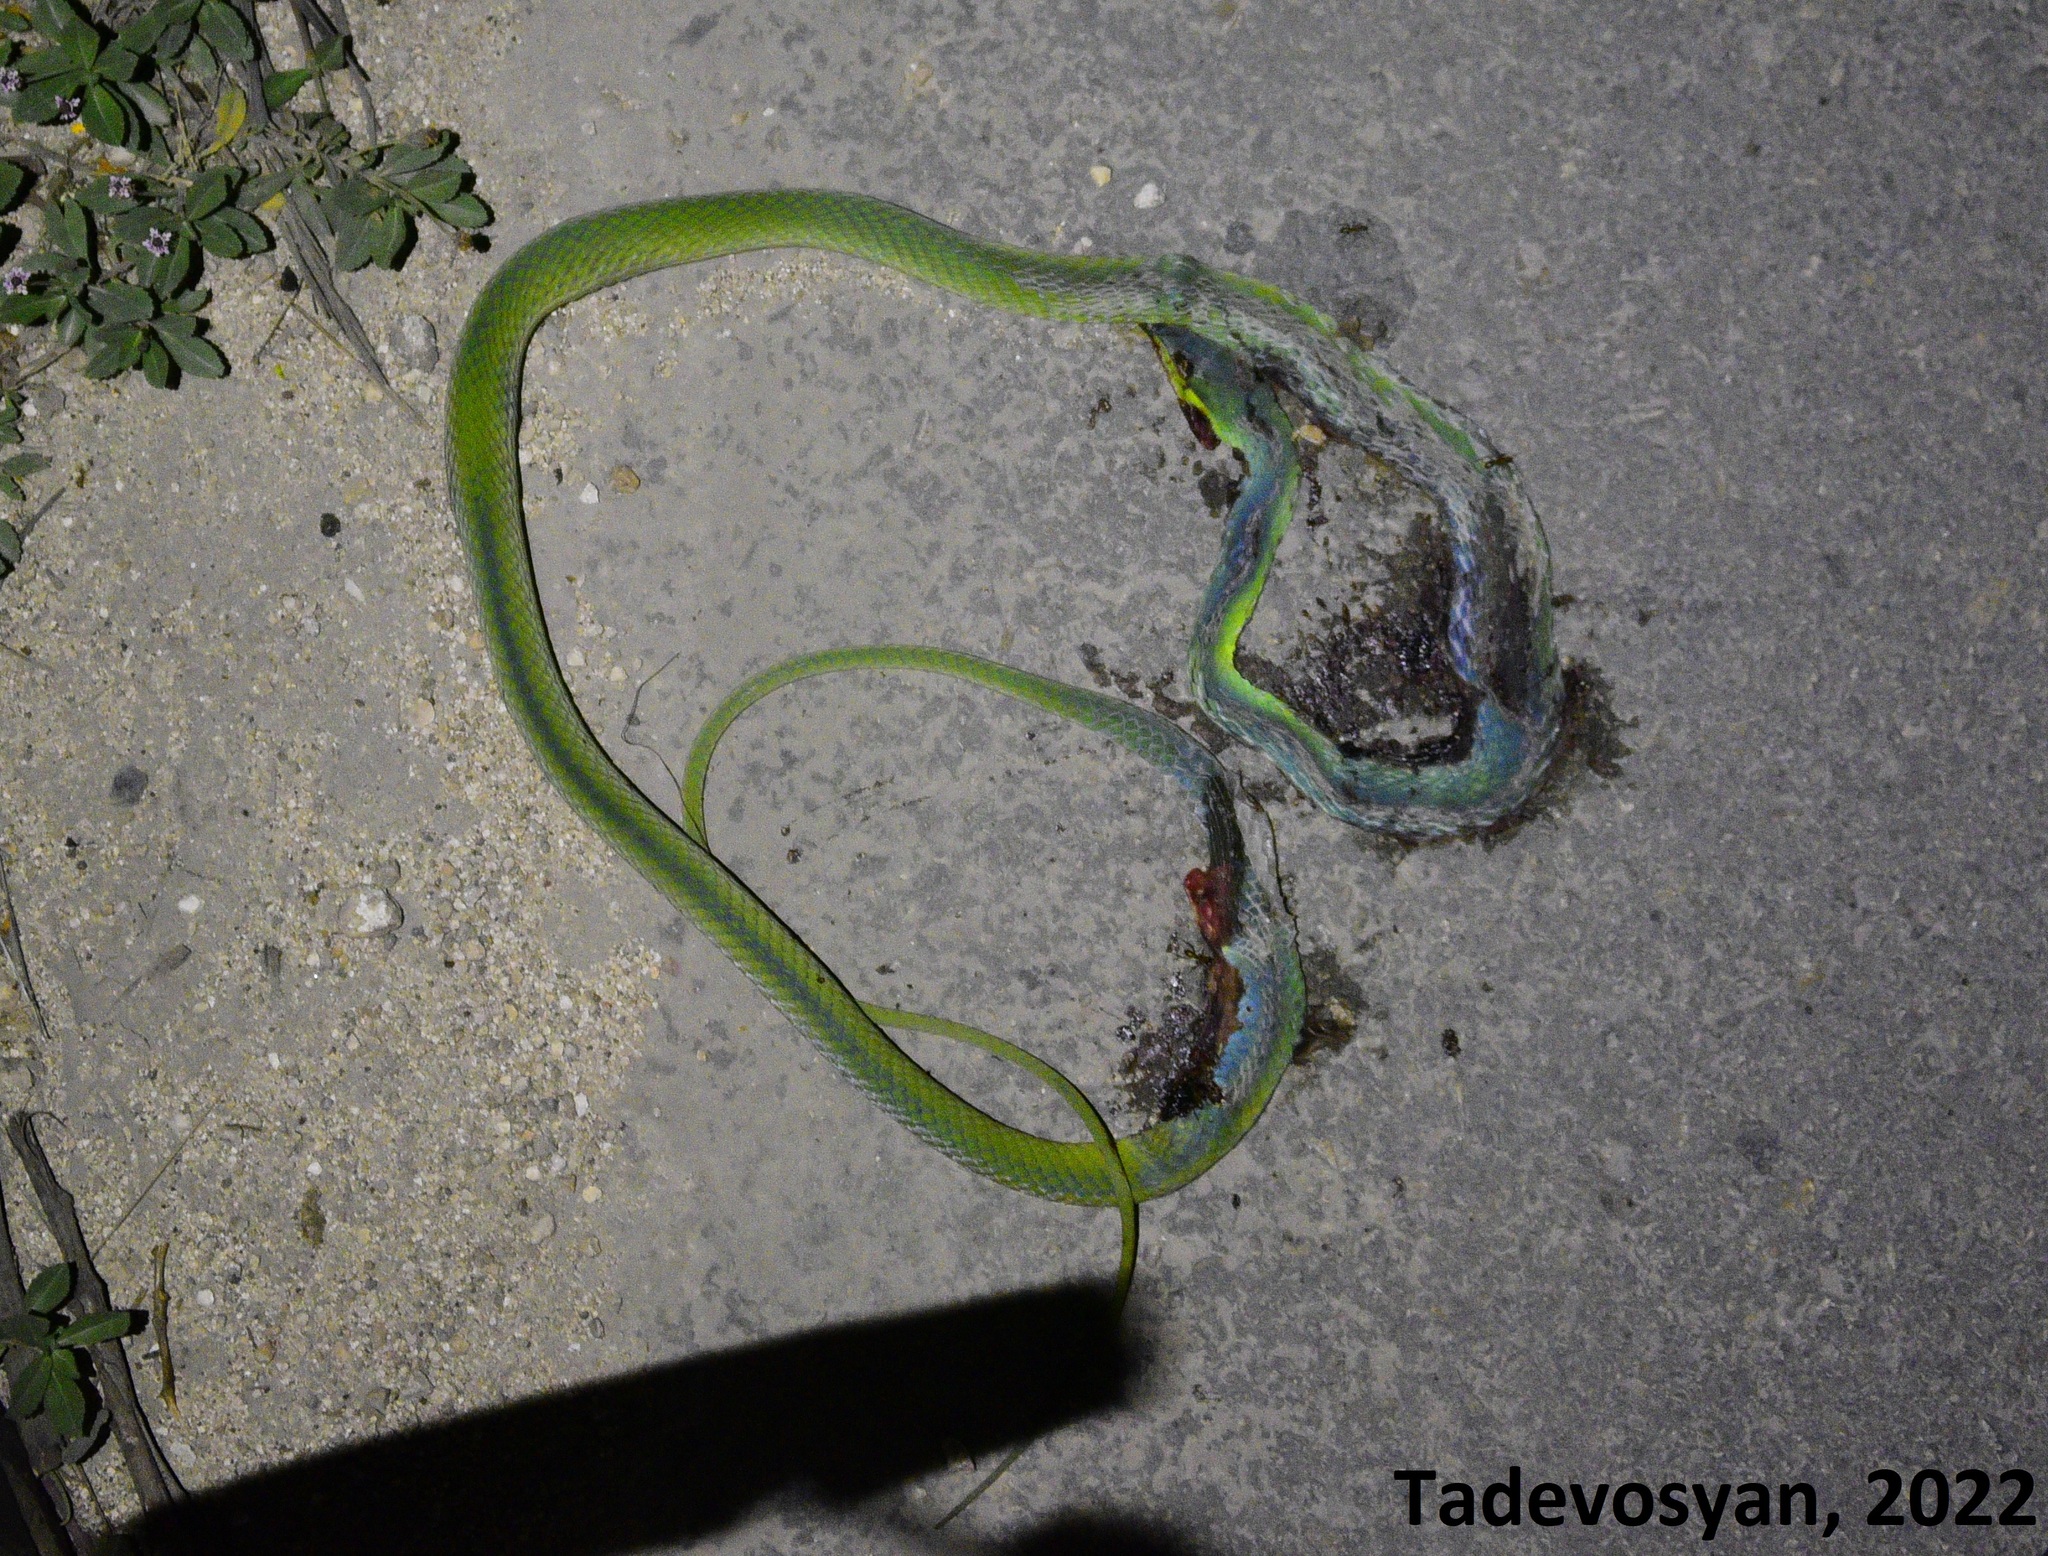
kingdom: Animalia
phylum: Chordata
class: Squamata
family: Colubridae
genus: Oxybelis
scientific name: Oxybelis fulgidus
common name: Green vine snake
